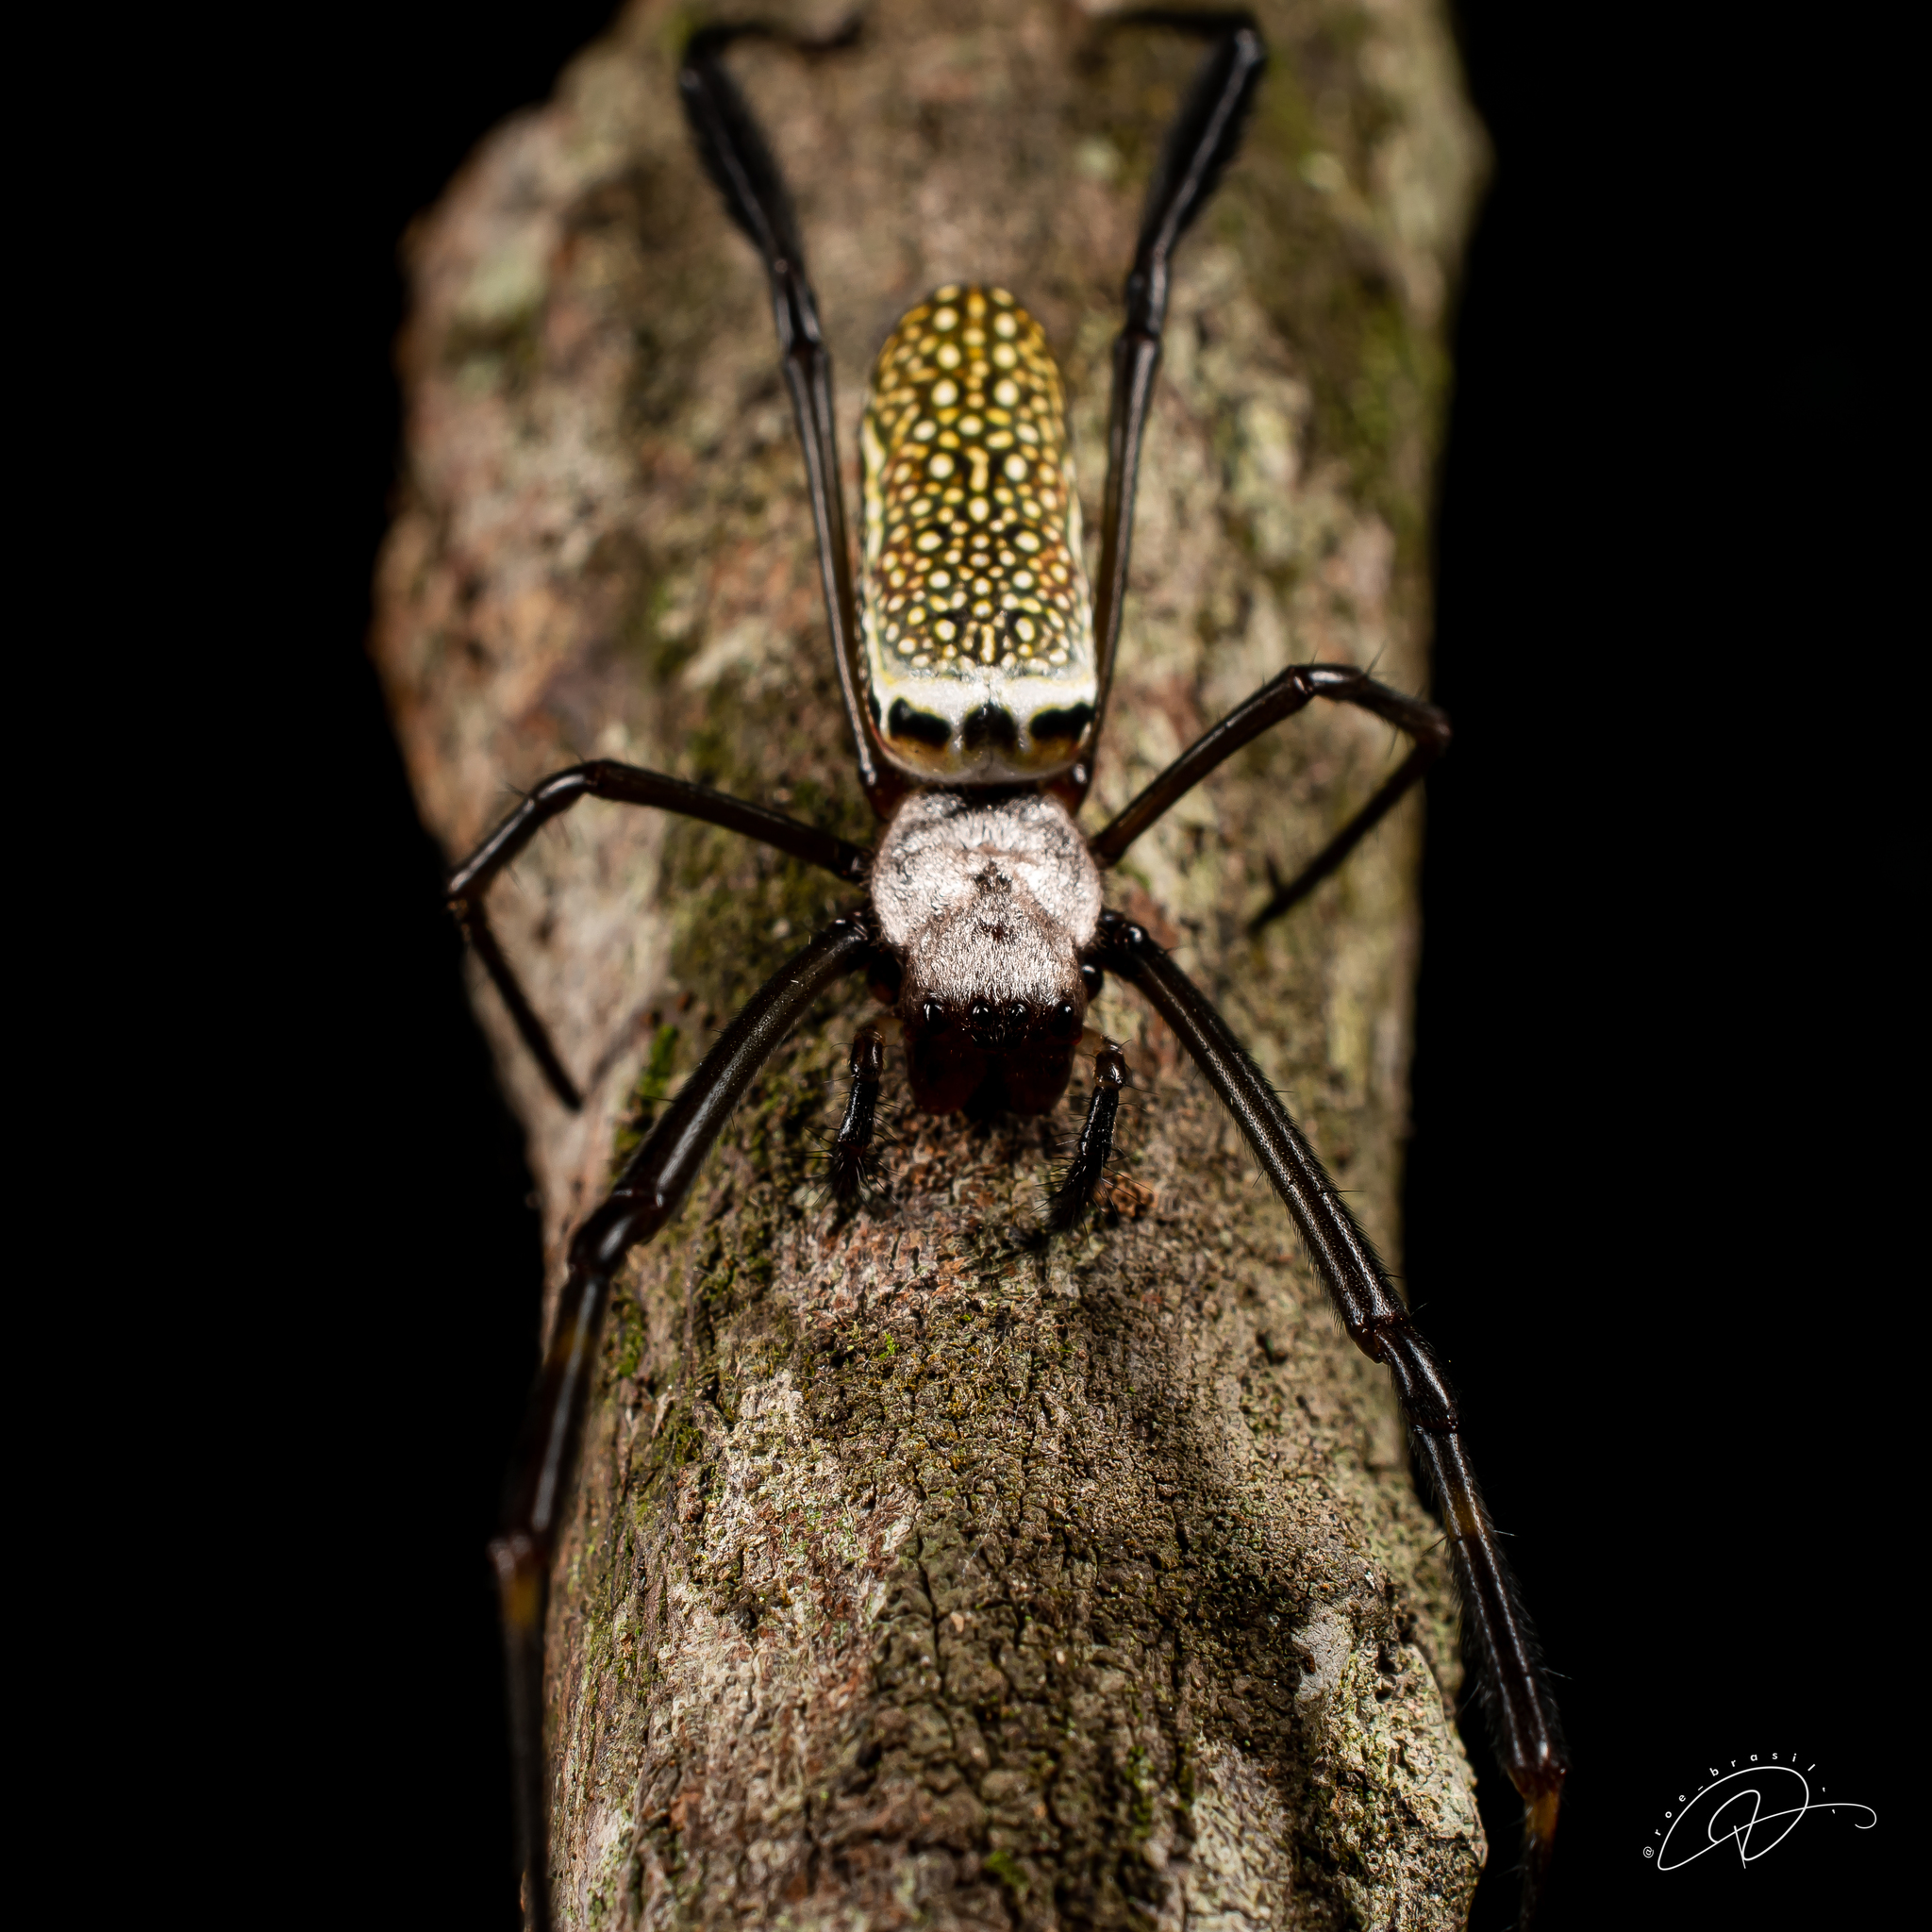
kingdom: Animalia
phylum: Arthropoda
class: Arachnida
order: Araneae
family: Araneidae
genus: Trichonephila
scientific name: Trichonephila clavipes
